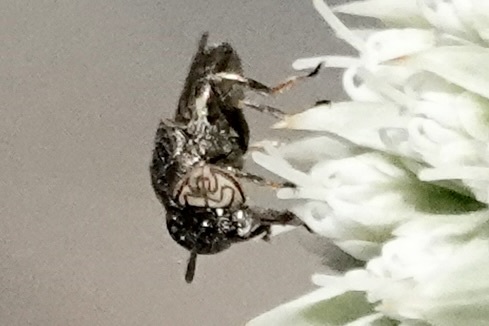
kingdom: Animalia
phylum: Arthropoda
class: Insecta
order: Diptera
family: Syrphidae
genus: Orthonevra
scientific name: Orthonevra nitida
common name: Wavy mucksucker
